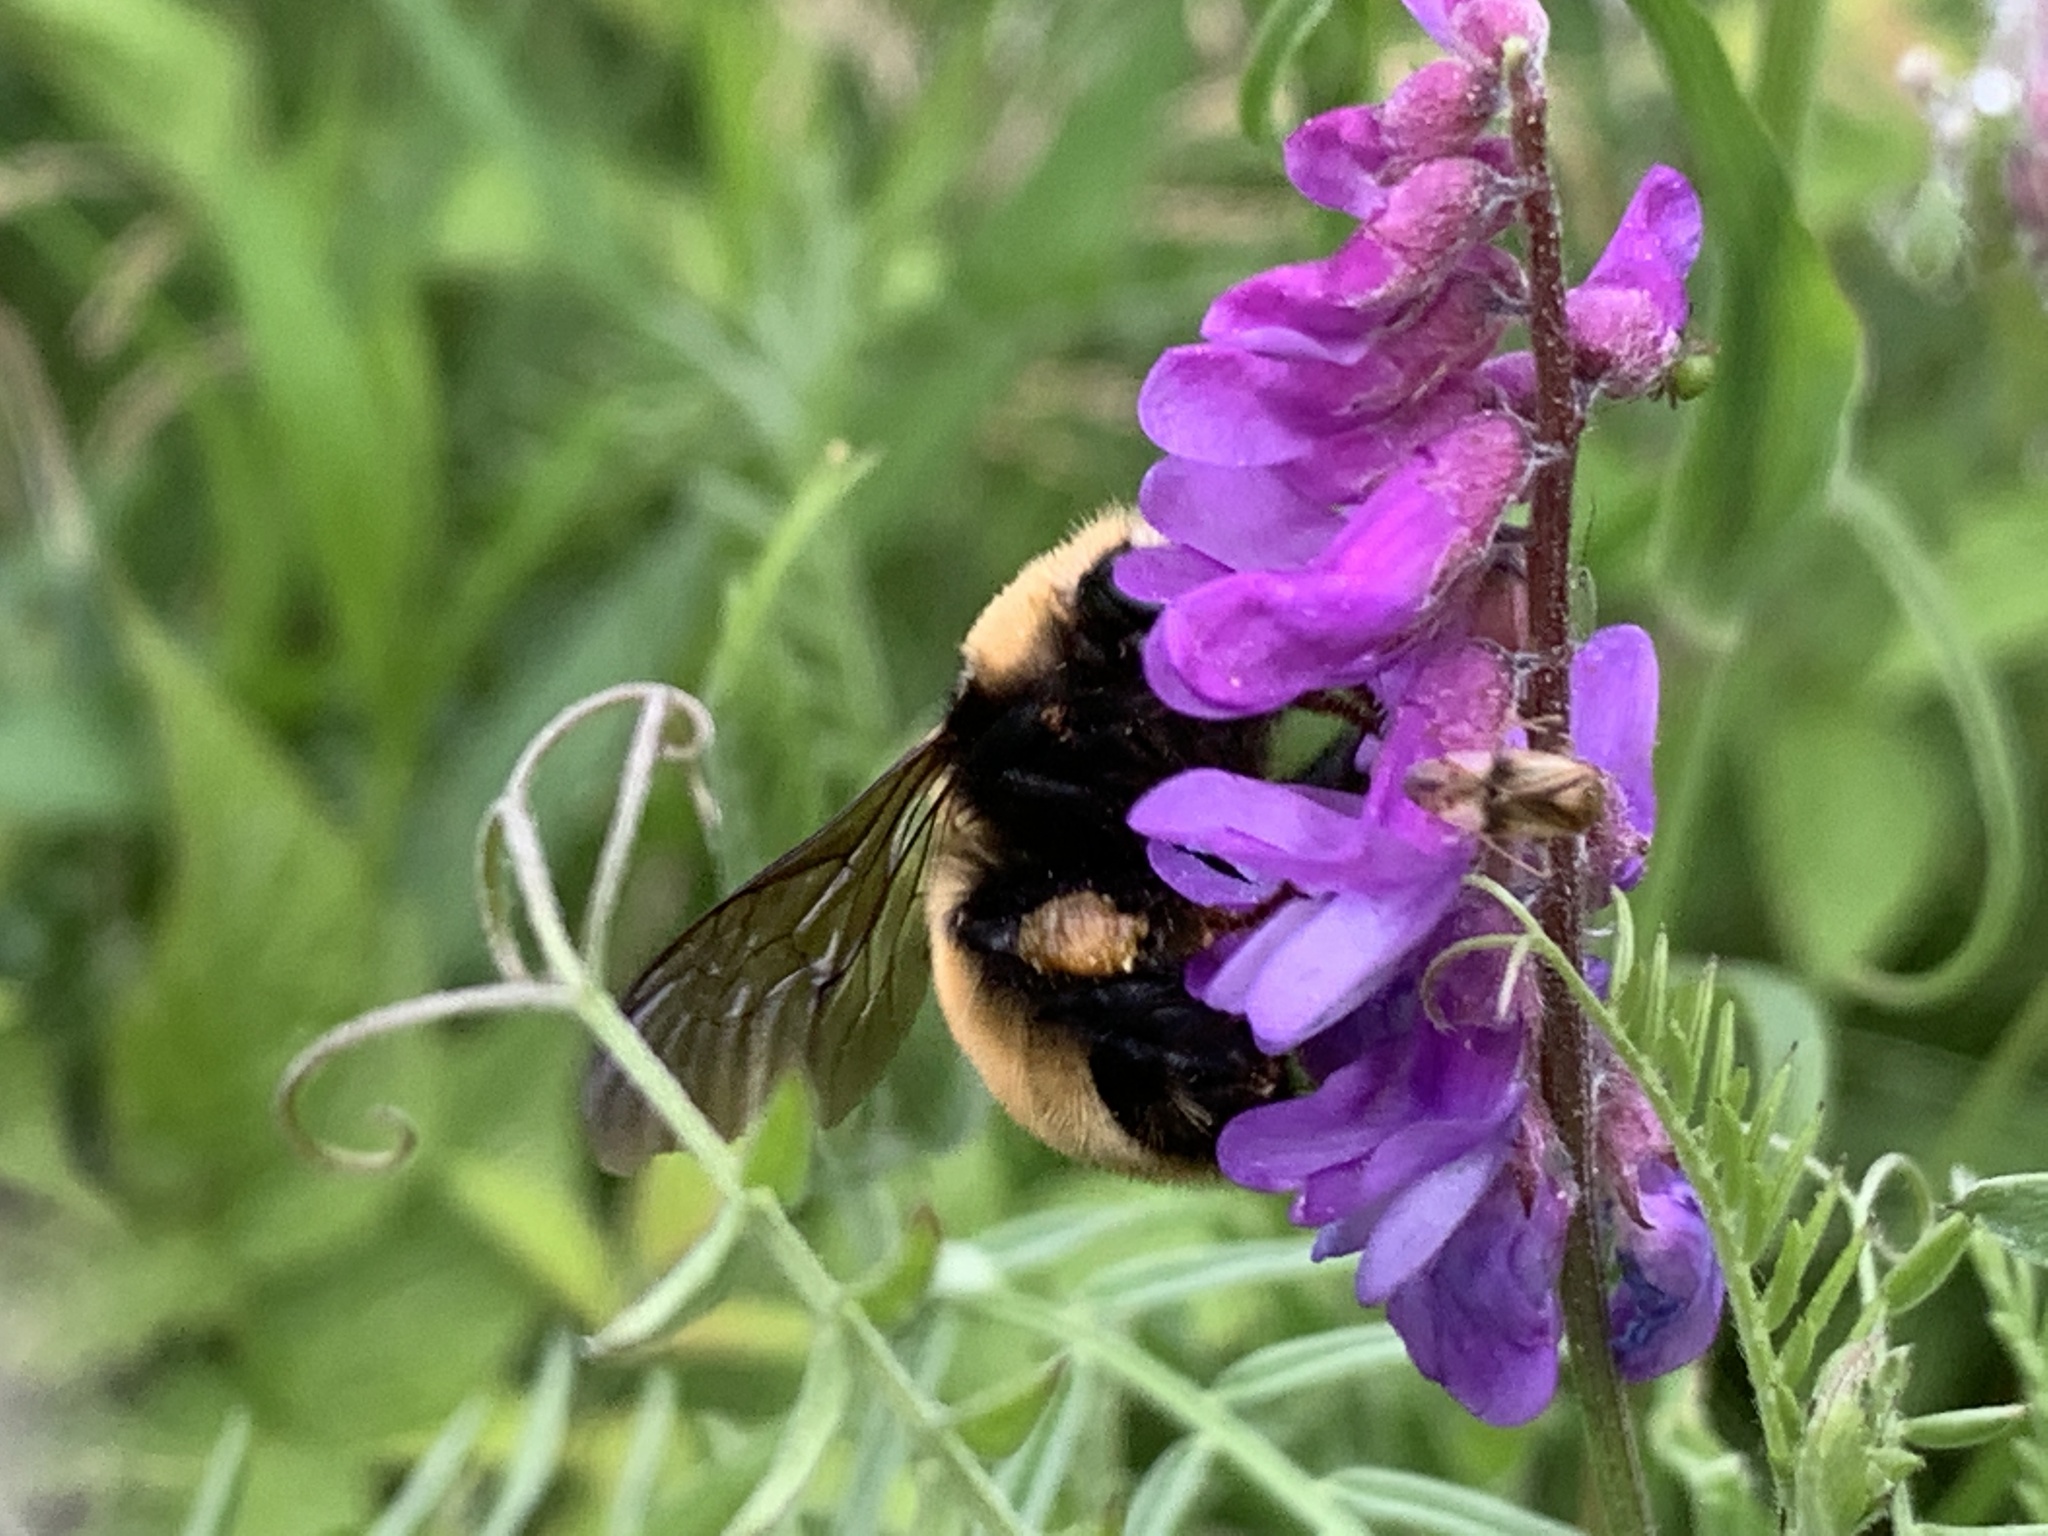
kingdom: Animalia
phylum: Arthropoda
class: Insecta
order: Hymenoptera
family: Apidae
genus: Bombus
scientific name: Bombus borealis
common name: Northern amber bumble bee
